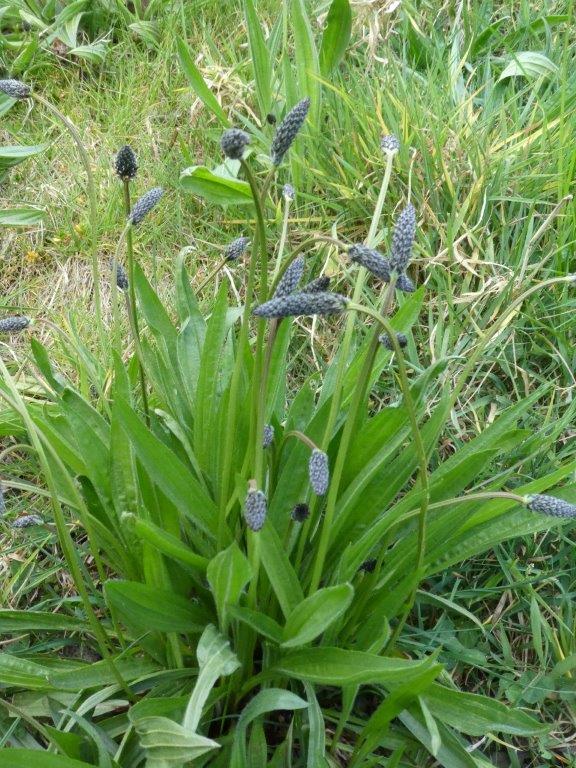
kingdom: Plantae
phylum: Tracheophyta
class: Magnoliopsida
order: Lamiales
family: Plantaginaceae
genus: Plantago
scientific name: Plantago lanceolata
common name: Ribwort plantain
